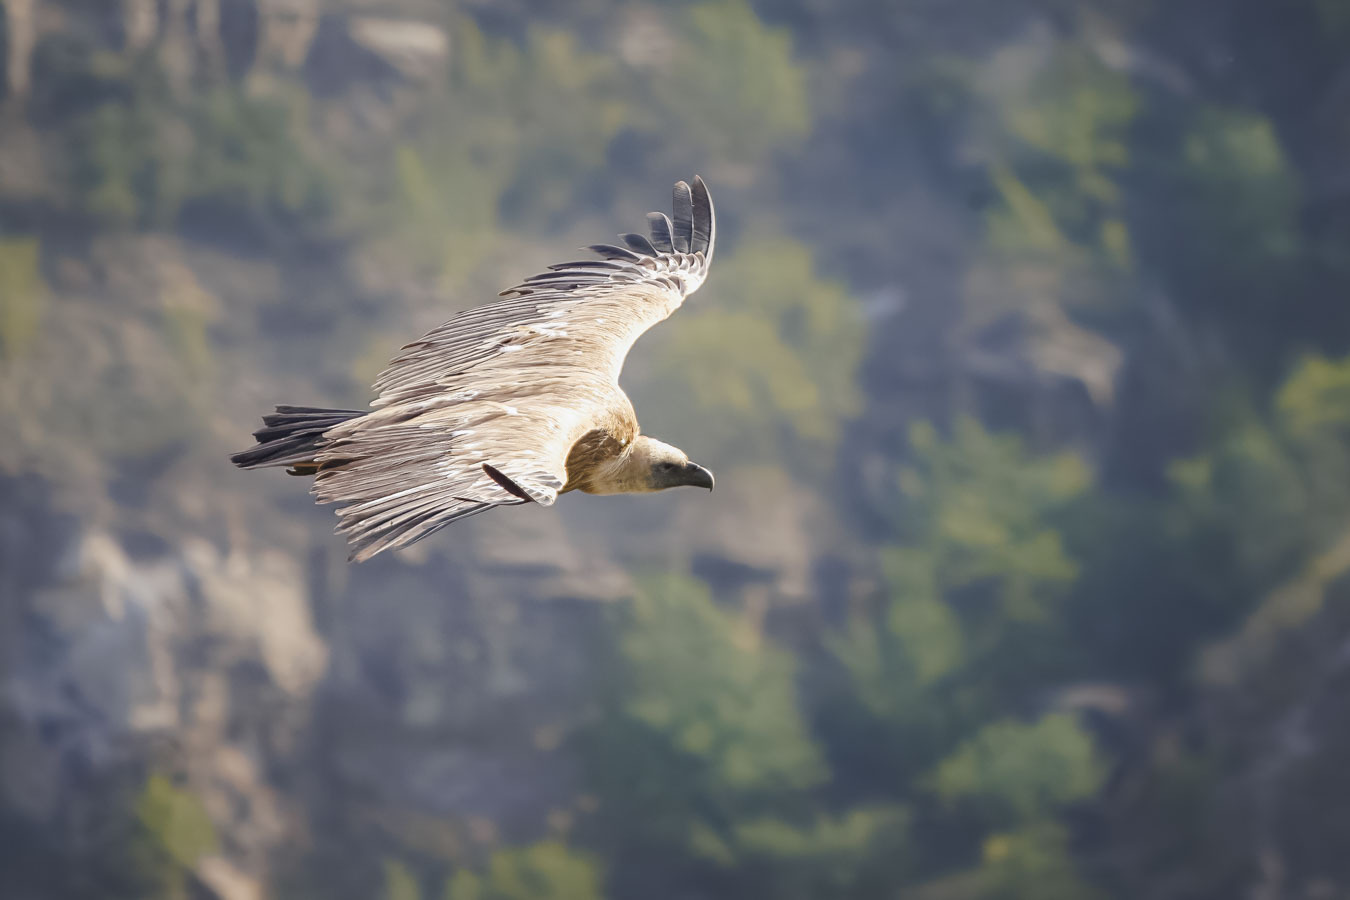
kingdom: Animalia
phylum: Chordata
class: Aves
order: Accipitriformes
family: Accipitridae
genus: Gyps
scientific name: Gyps fulvus
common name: Griffon vulture
